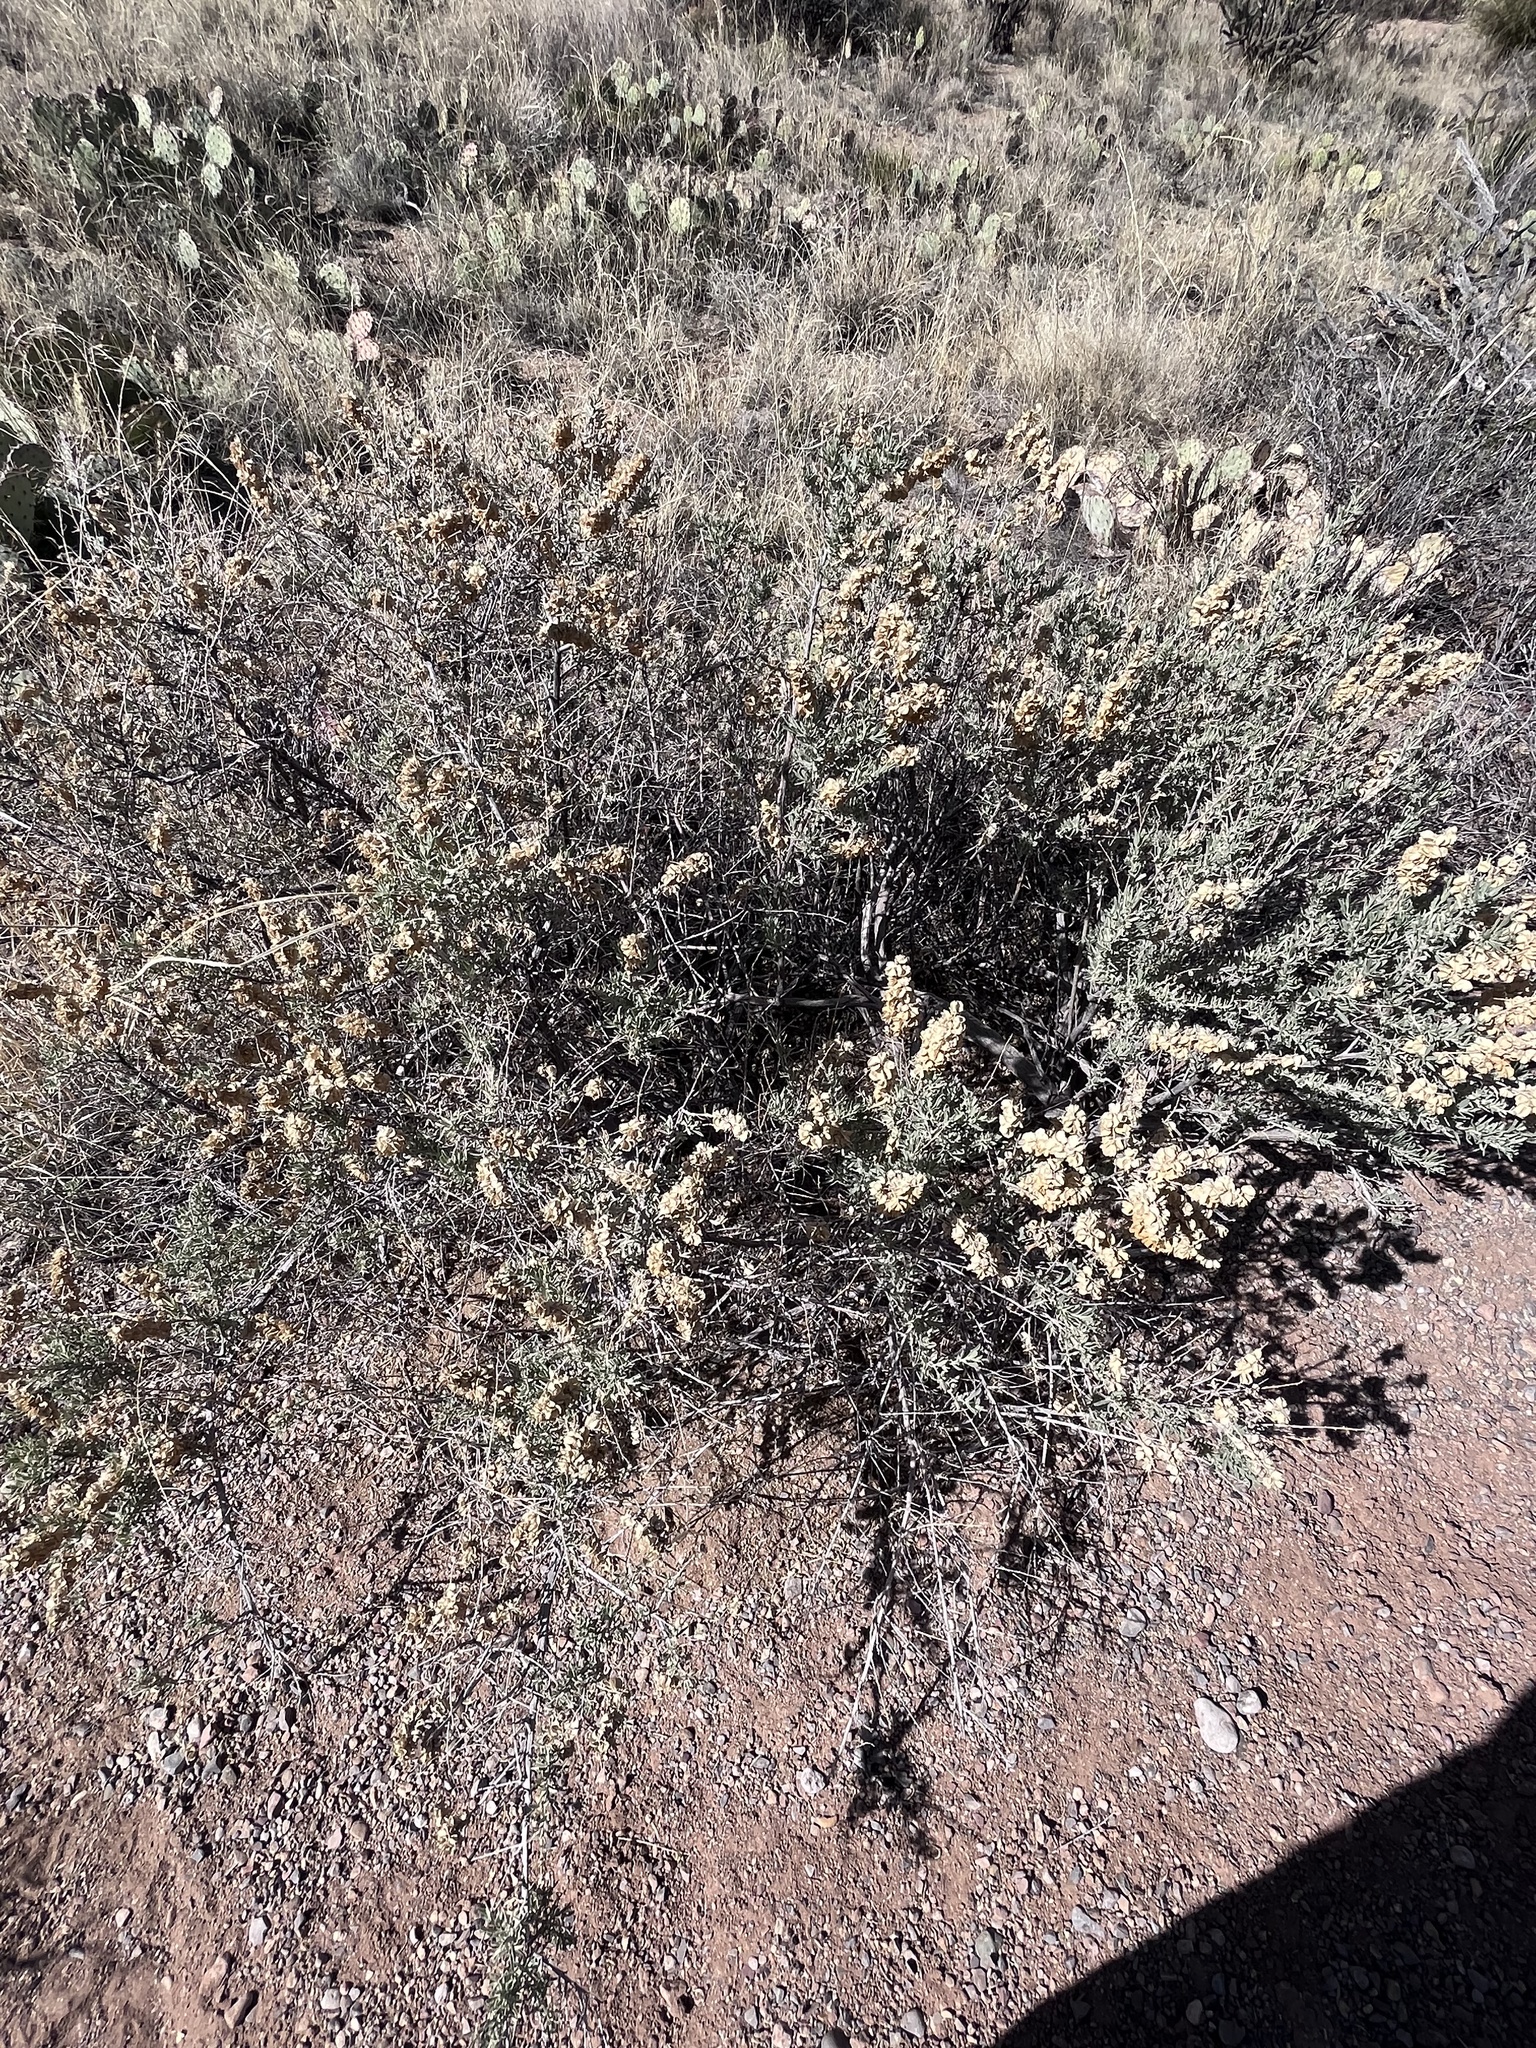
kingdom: Plantae
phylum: Tracheophyta
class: Magnoliopsida
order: Caryophyllales
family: Amaranthaceae
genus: Atriplex
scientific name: Atriplex canescens
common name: Four-wing saltbush
